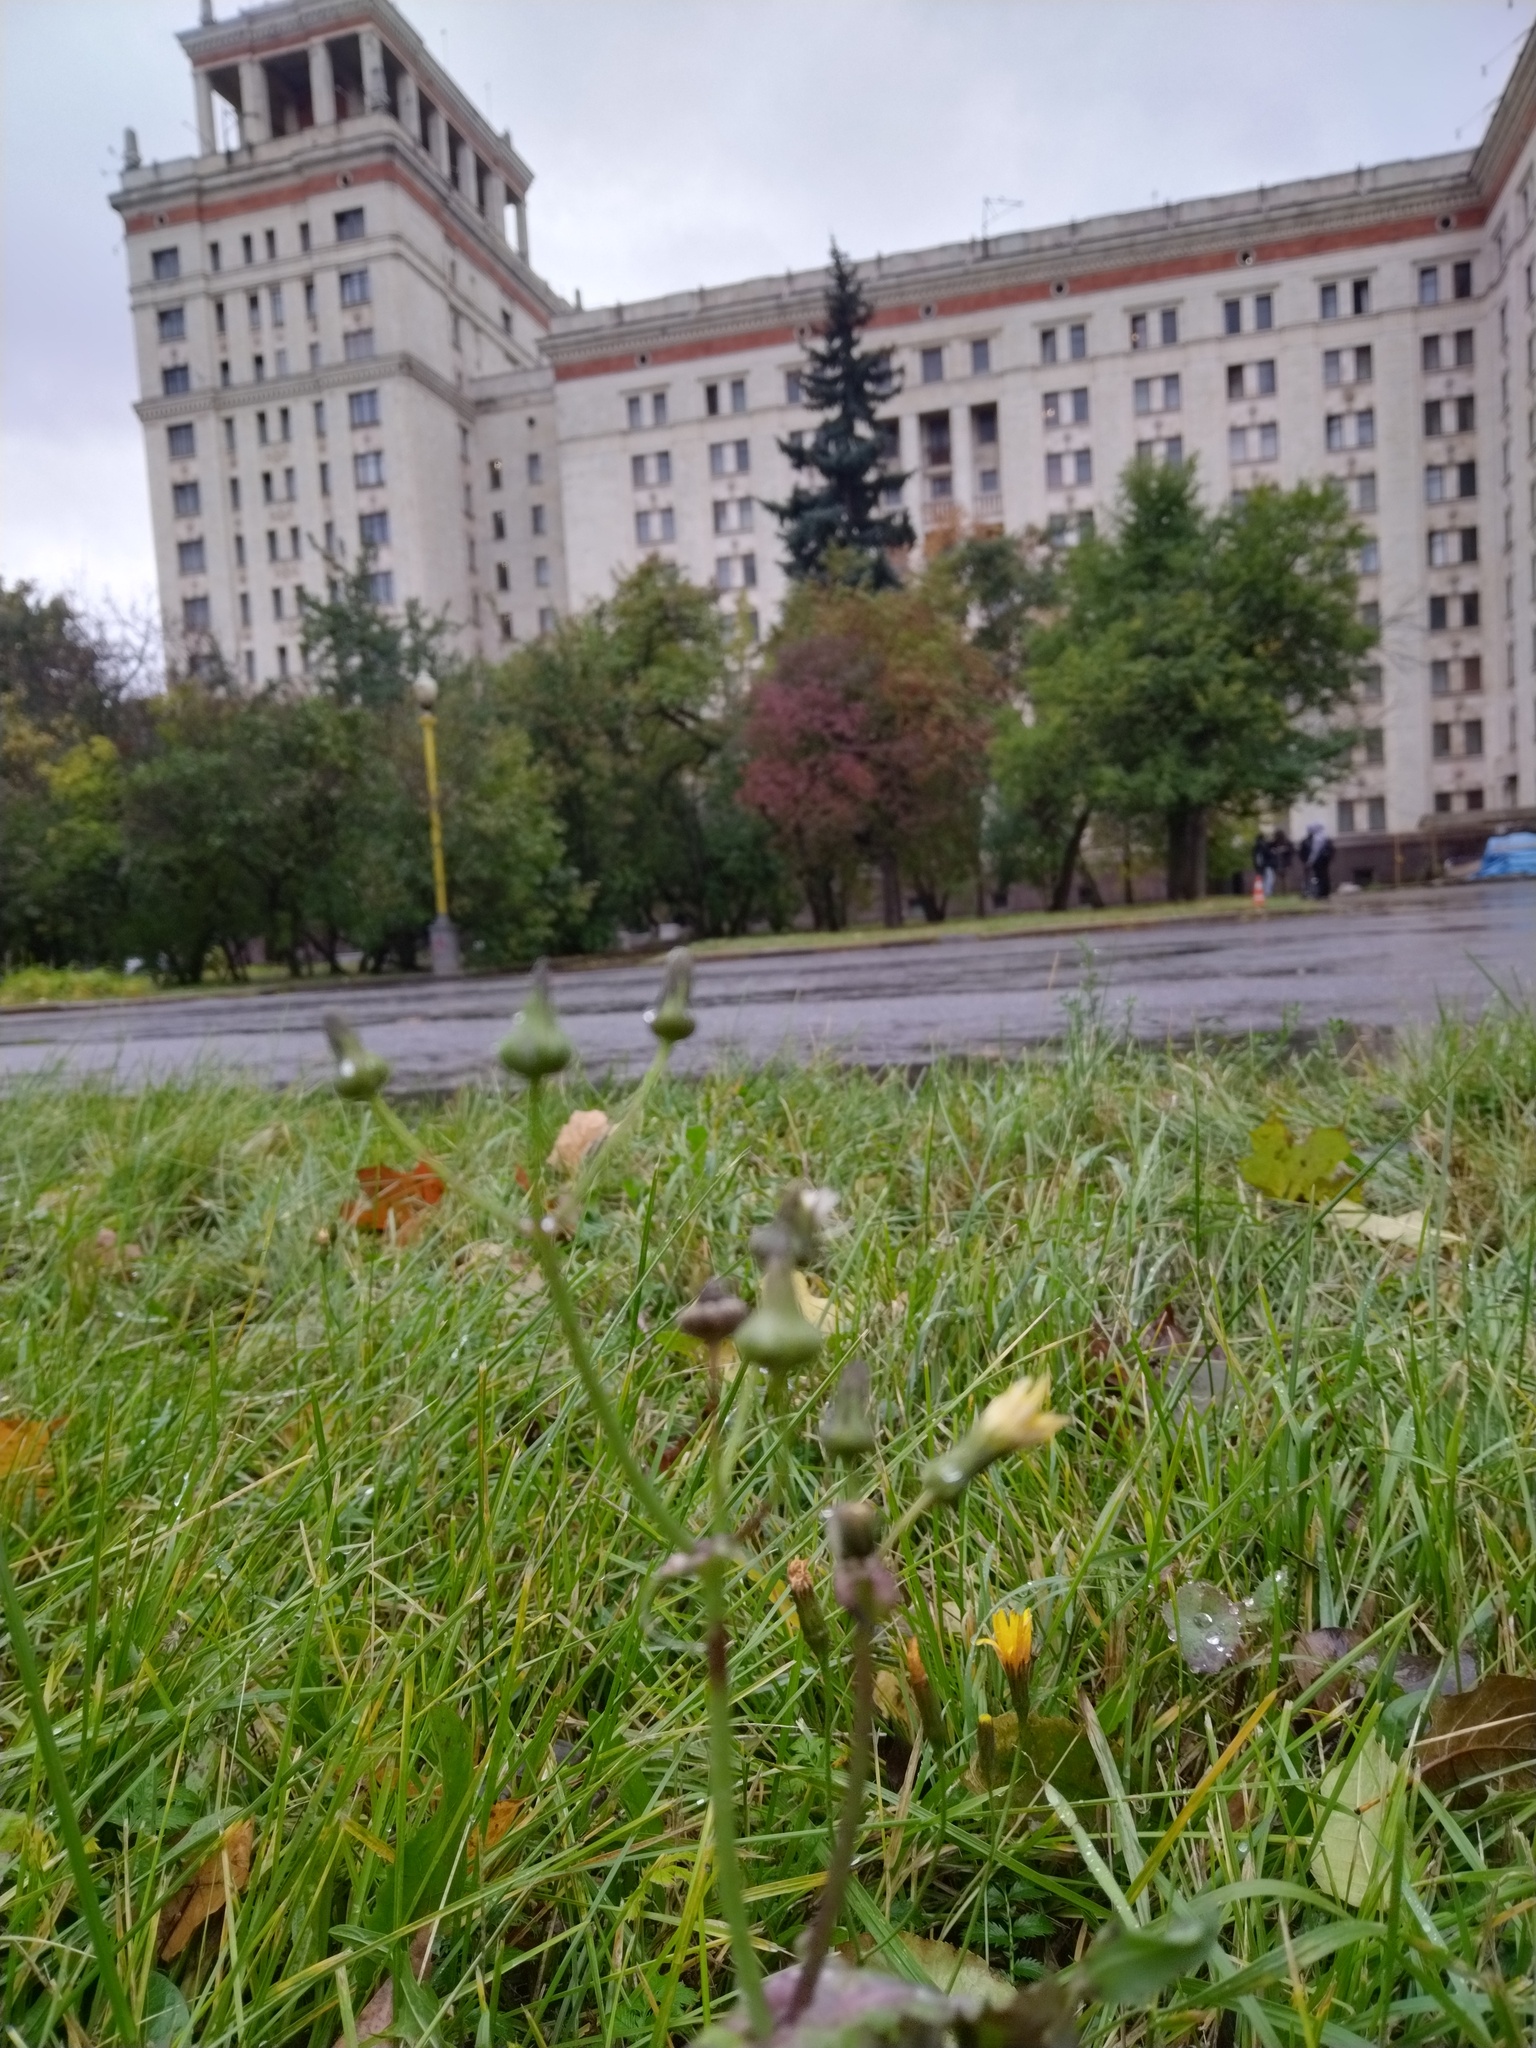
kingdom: Plantae
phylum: Tracheophyta
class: Magnoliopsida
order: Asterales
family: Asteraceae
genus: Sonchus
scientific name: Sonchus oleraceus
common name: Common sowthistle
